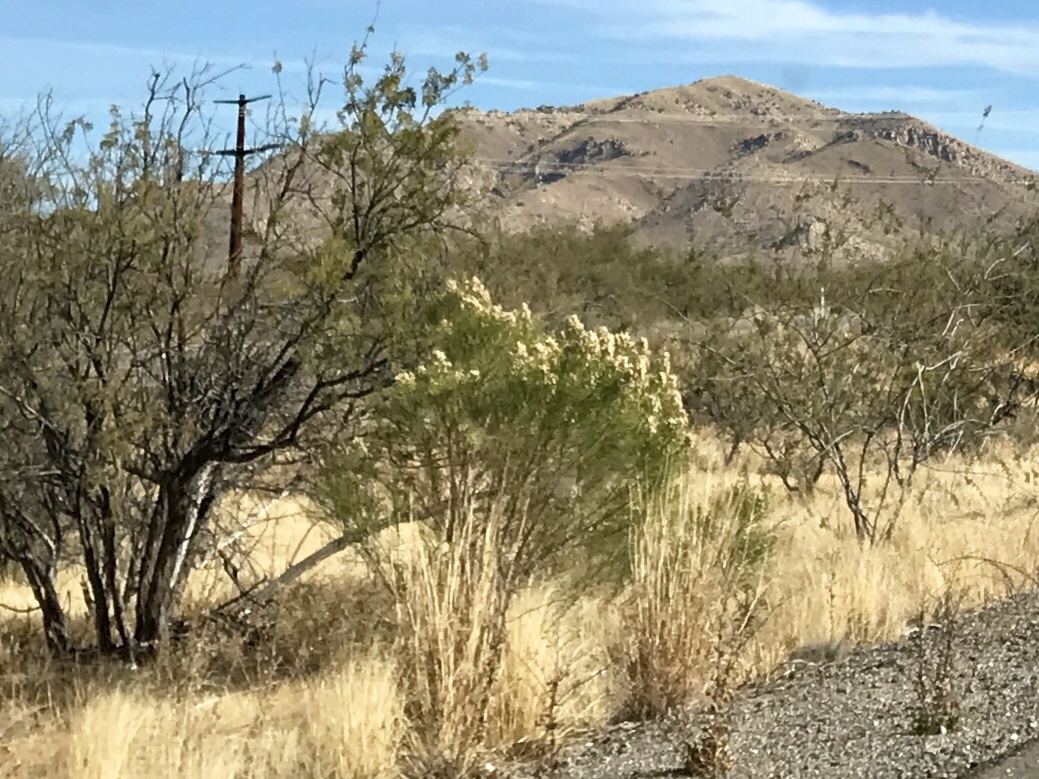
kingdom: Plantae
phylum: Tracheophyta
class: Magnoliopsida
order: Asterales
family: Asteraceae
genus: Baccharis
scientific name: Baccharis sarothroides
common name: Desert-broom
